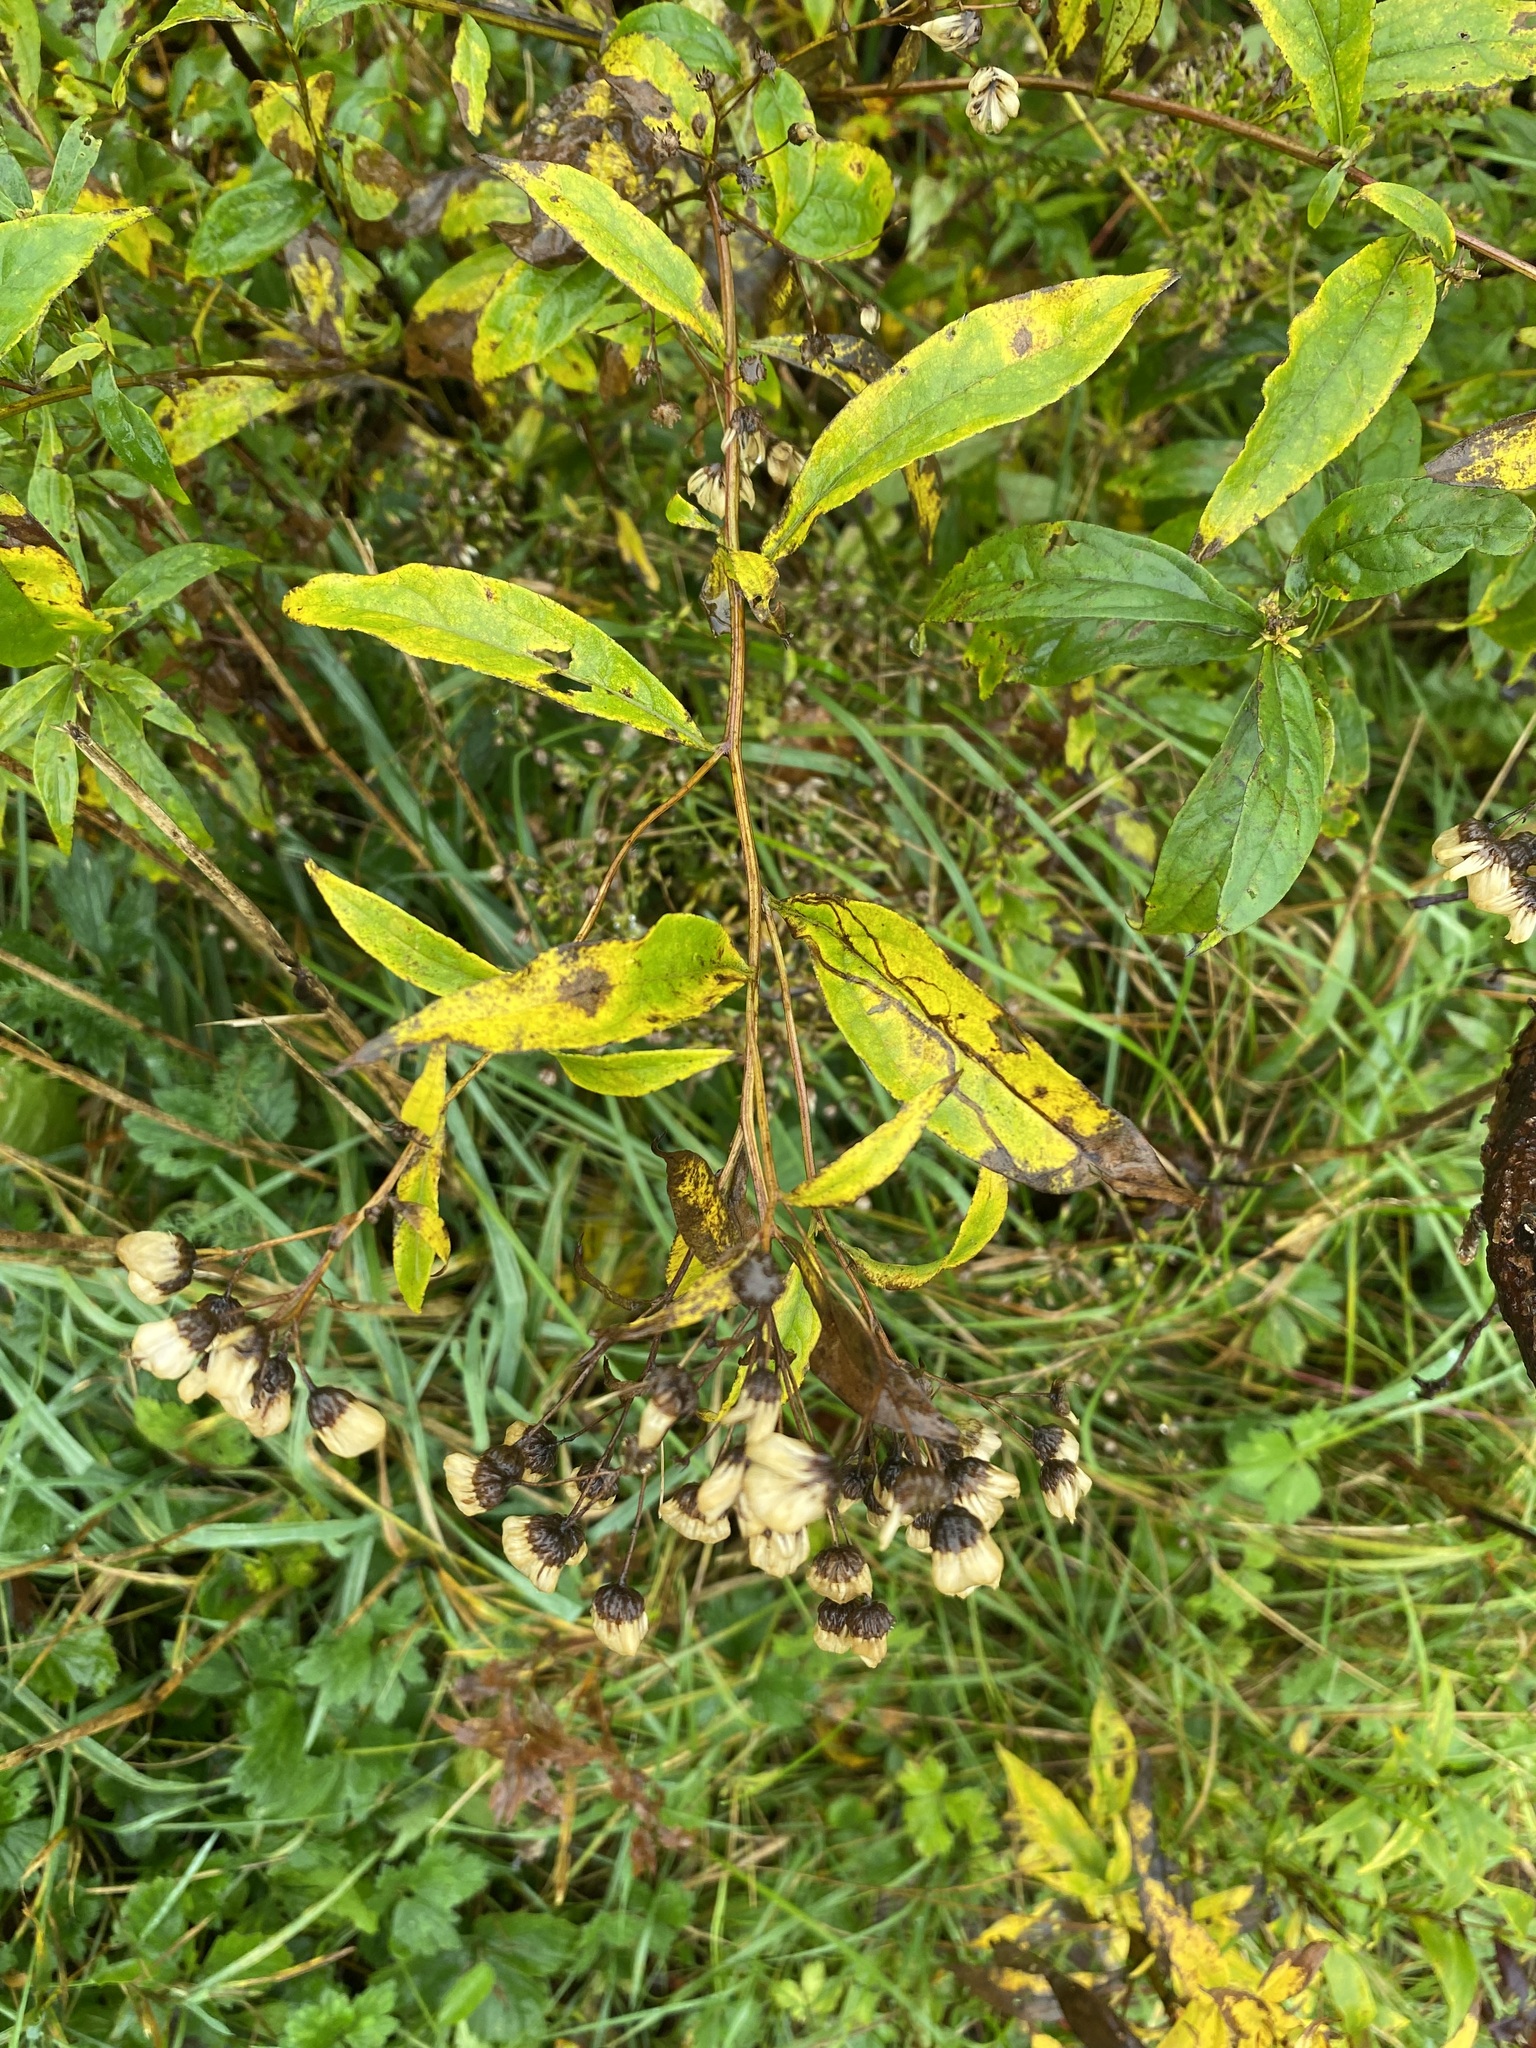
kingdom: Plantae
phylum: Tracheophyta
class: Magnoliopsida
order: Asterales
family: Asteraceae
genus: Doellingeria
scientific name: Doellingeria umbellata
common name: Flat-top white aster
